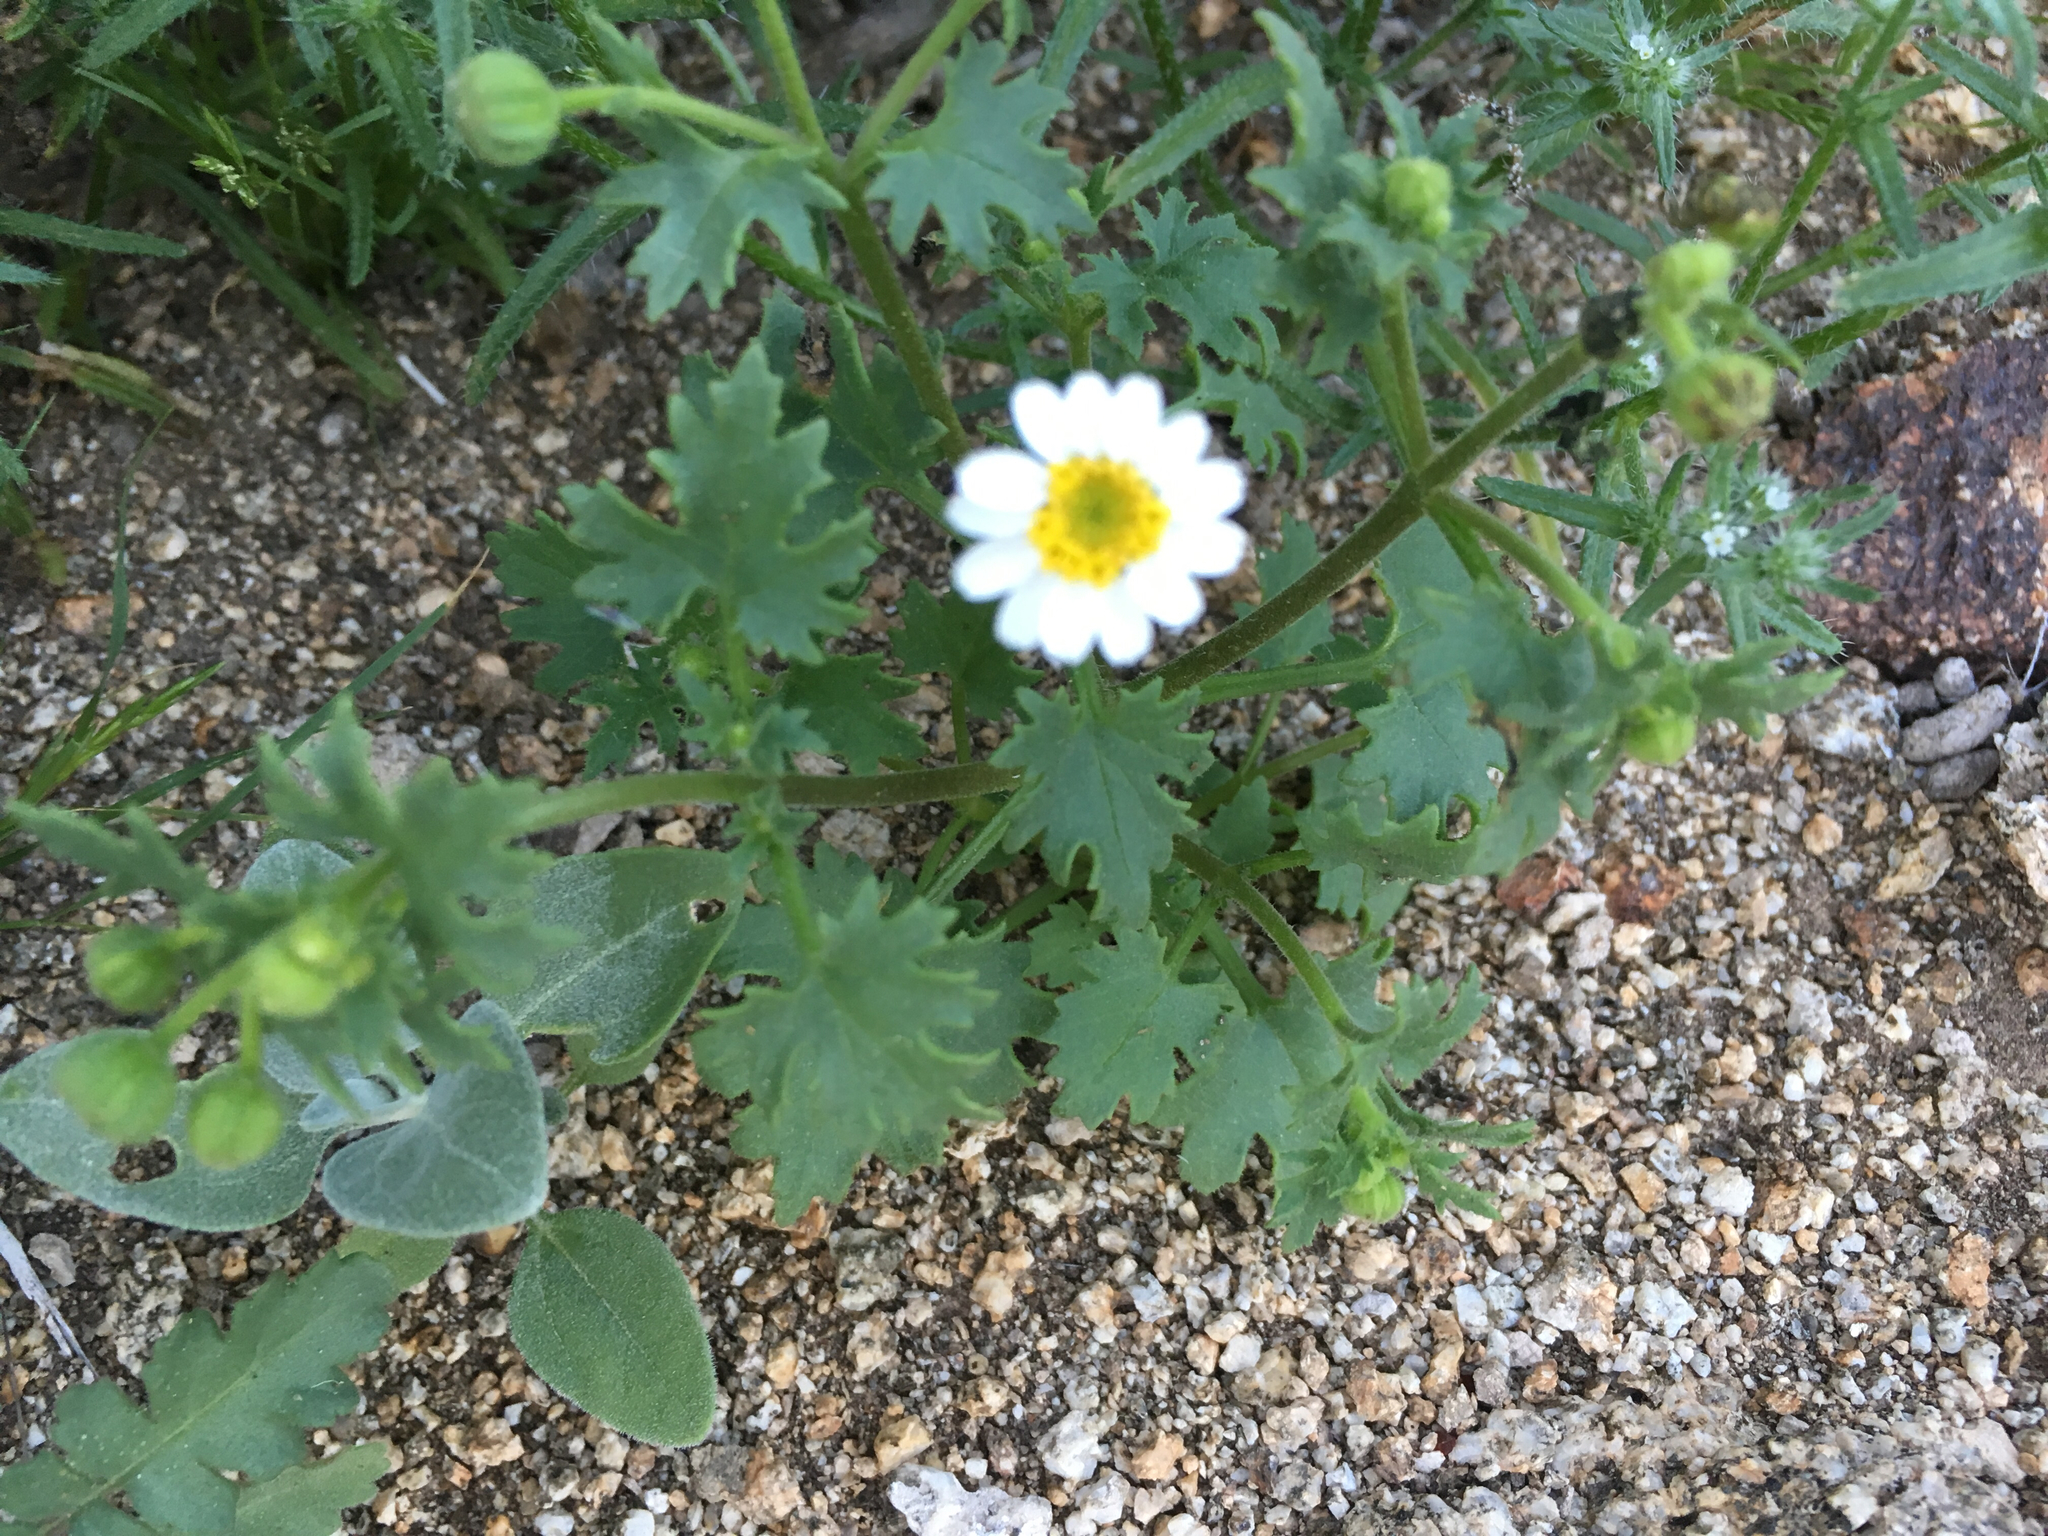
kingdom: Plantae
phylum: Tracheophyta
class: Magnoliopsida
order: Asterales
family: Asteraceae
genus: Laphamia
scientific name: Laphamia emoryi
